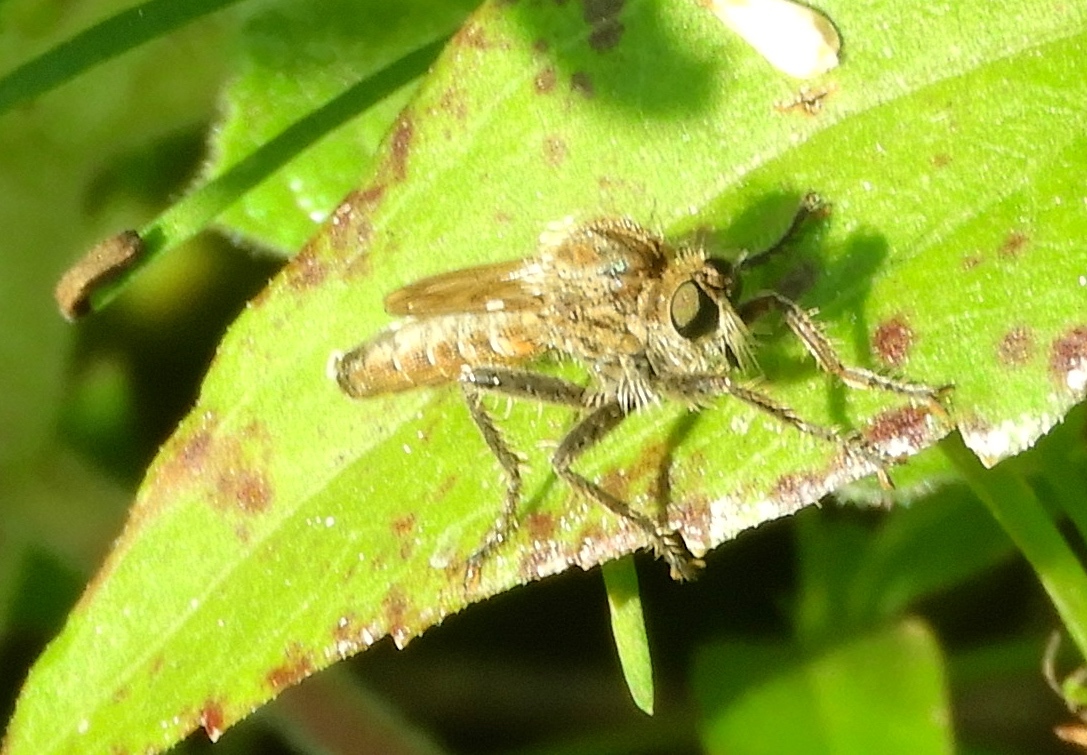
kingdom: Animalia
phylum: Arthropoda
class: Insecta
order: Diptera
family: Asilidae
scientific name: Asilidae
